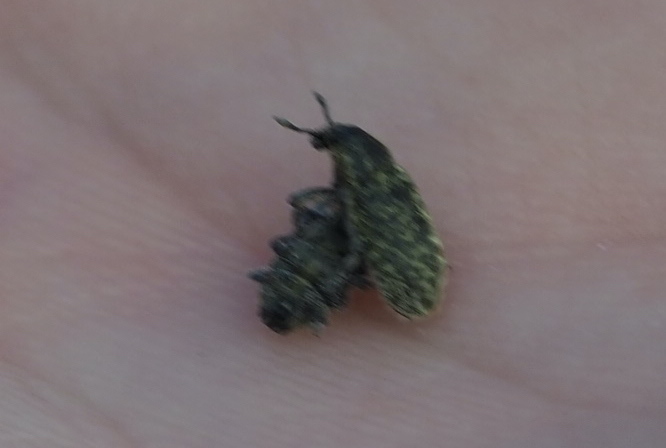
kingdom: Animalia
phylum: Arthropoda
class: Insecta
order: Coleoptera
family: Curculionidae
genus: Rhinocyllus
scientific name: Rhinocyllus conicus
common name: Weevil
